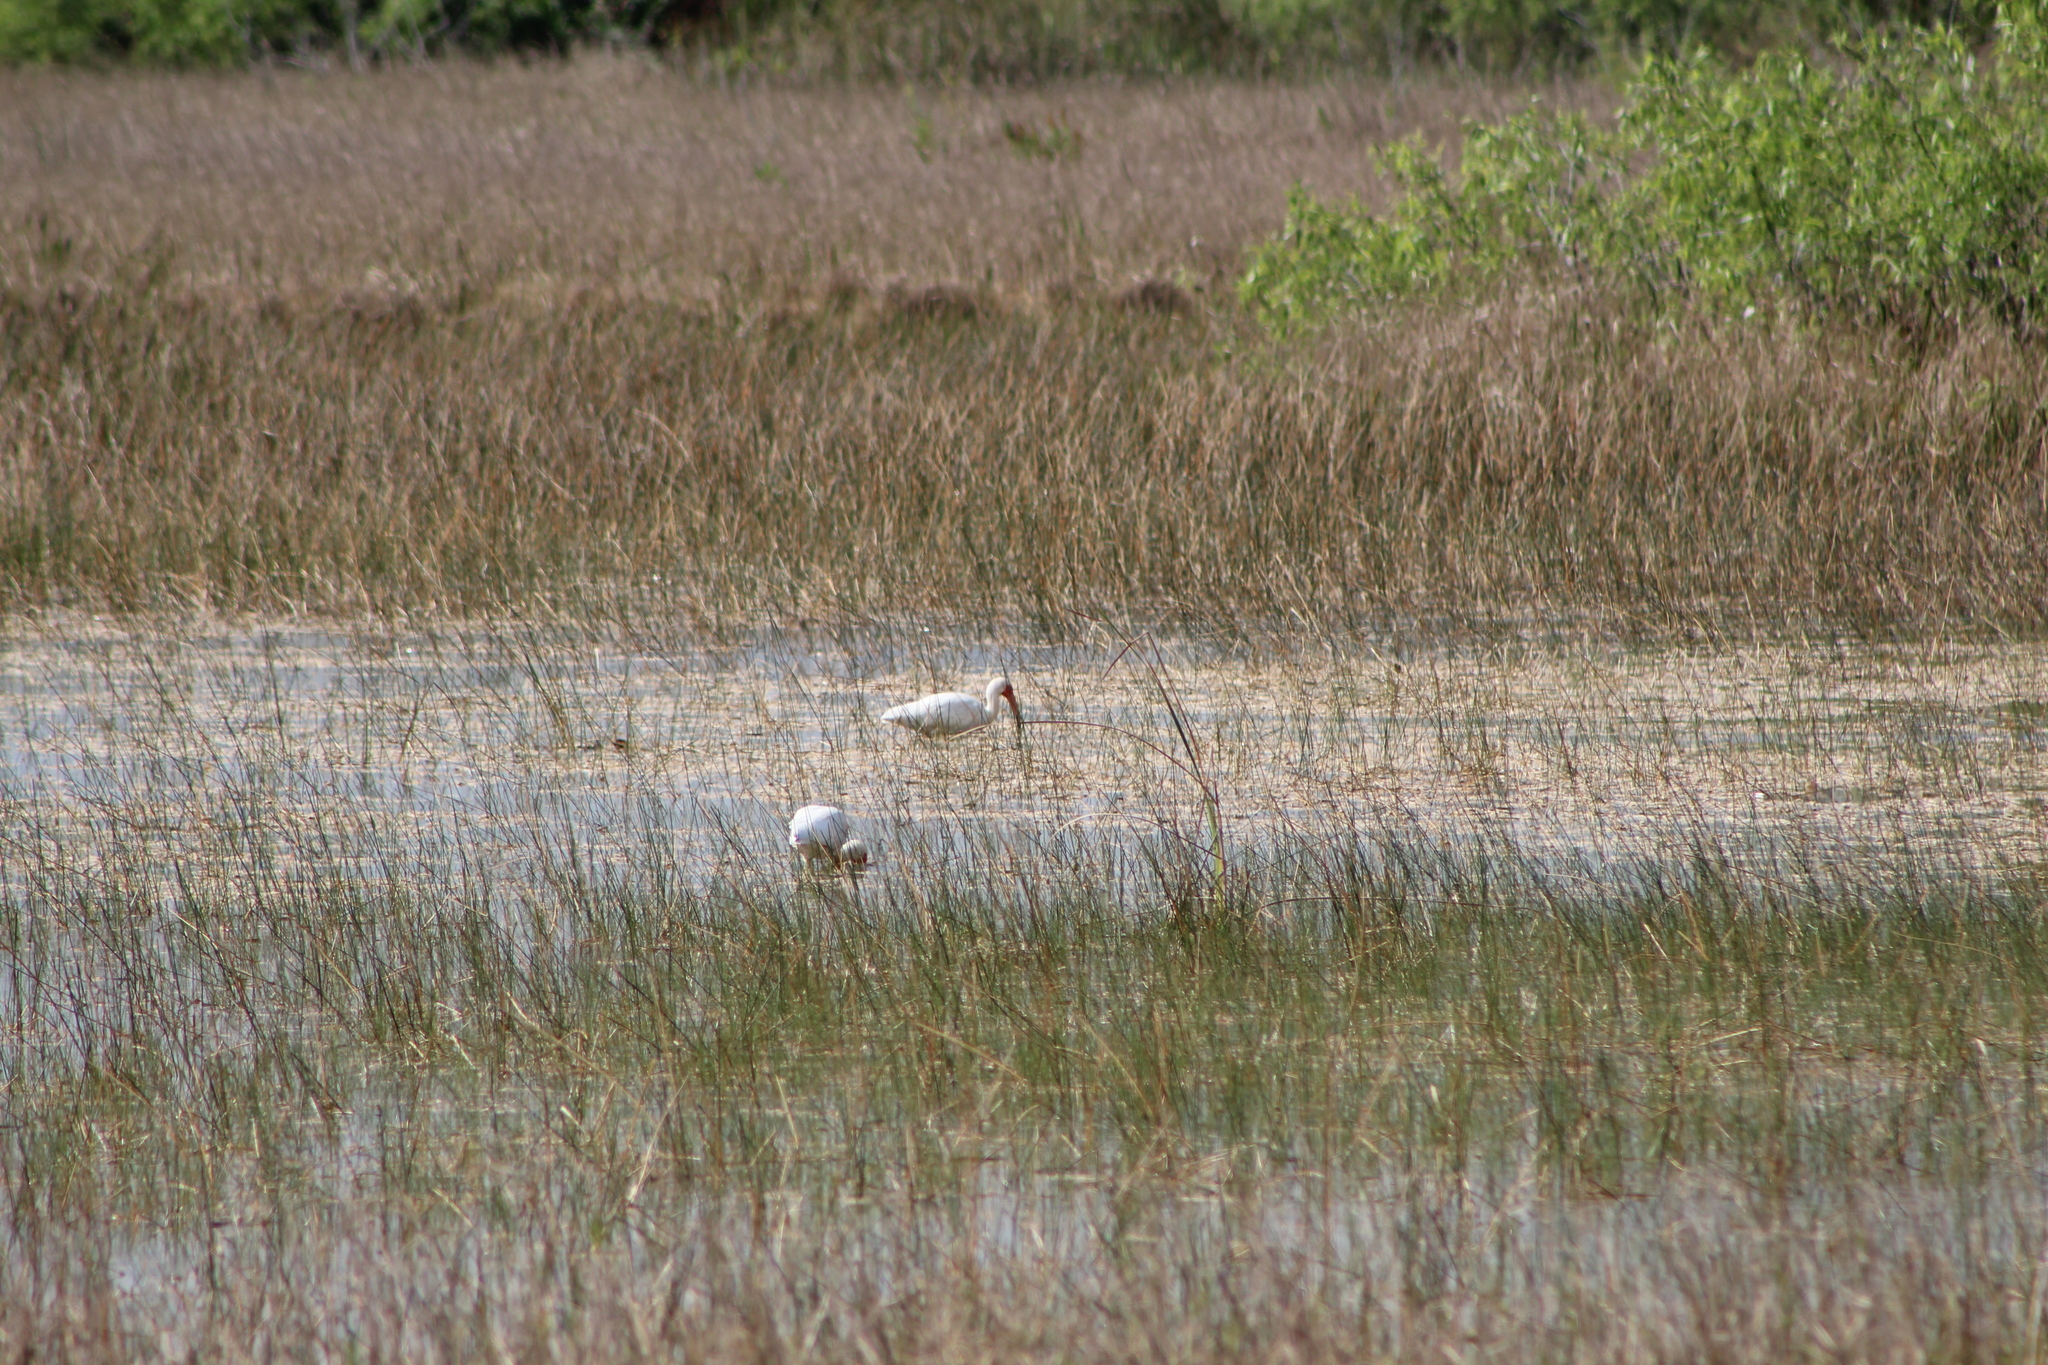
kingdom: Animalia
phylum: Chordata
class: Aves
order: Pelecaniformes
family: Threskiornithidae
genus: Eudocimus
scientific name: Eudocimus albus
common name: White ibis
